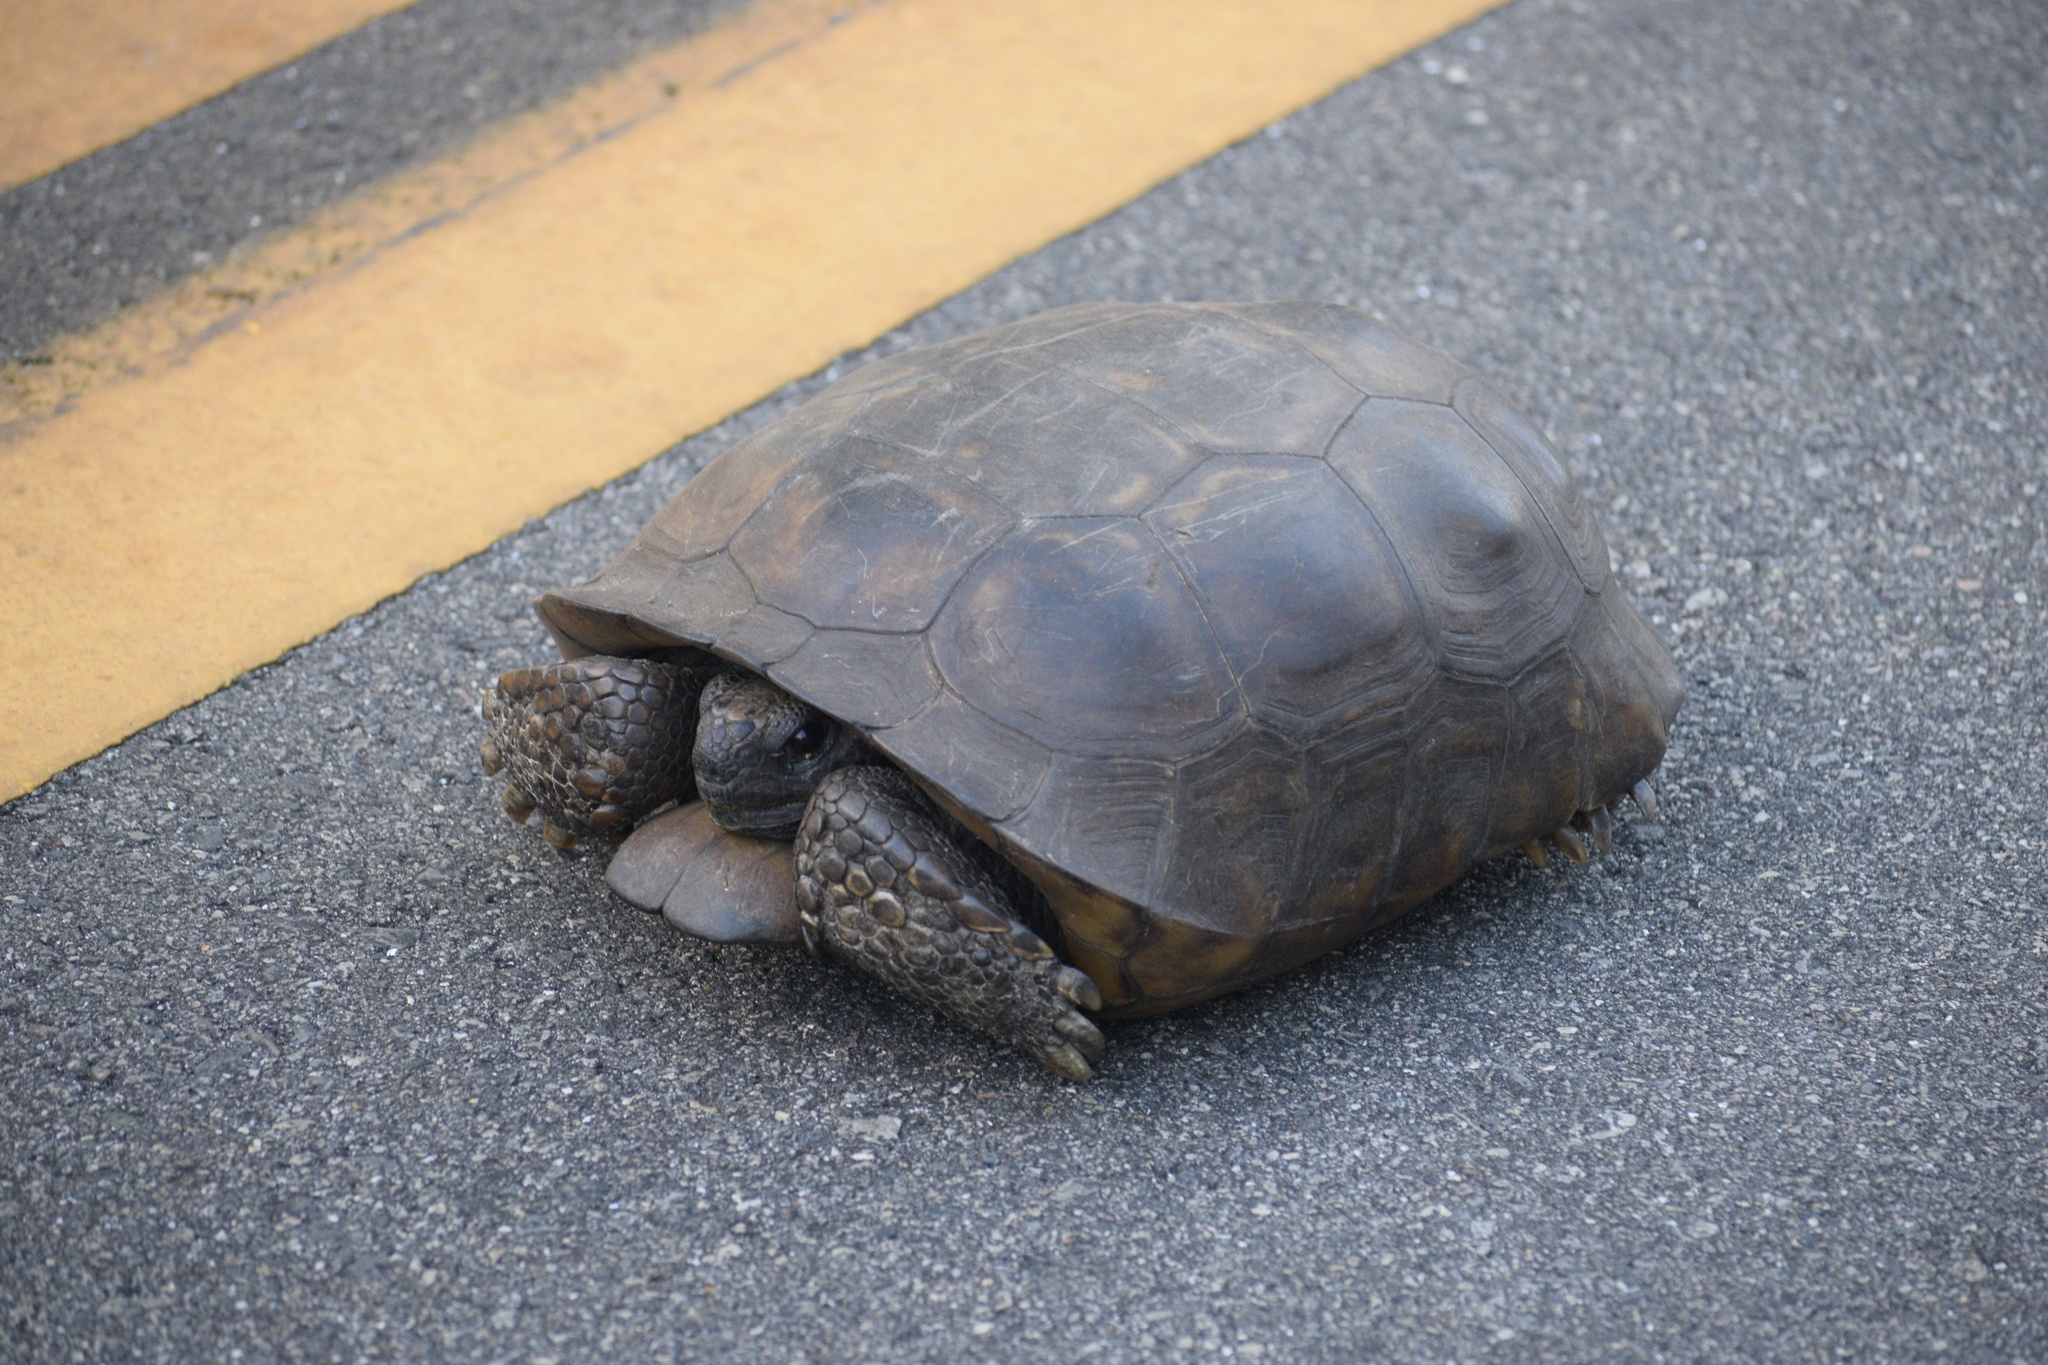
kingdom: Animalia
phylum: Chordata
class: Testudines
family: Testudinidae
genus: Gopherus
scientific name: Gopherus polyphemus
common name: Florida gopher tortoise
